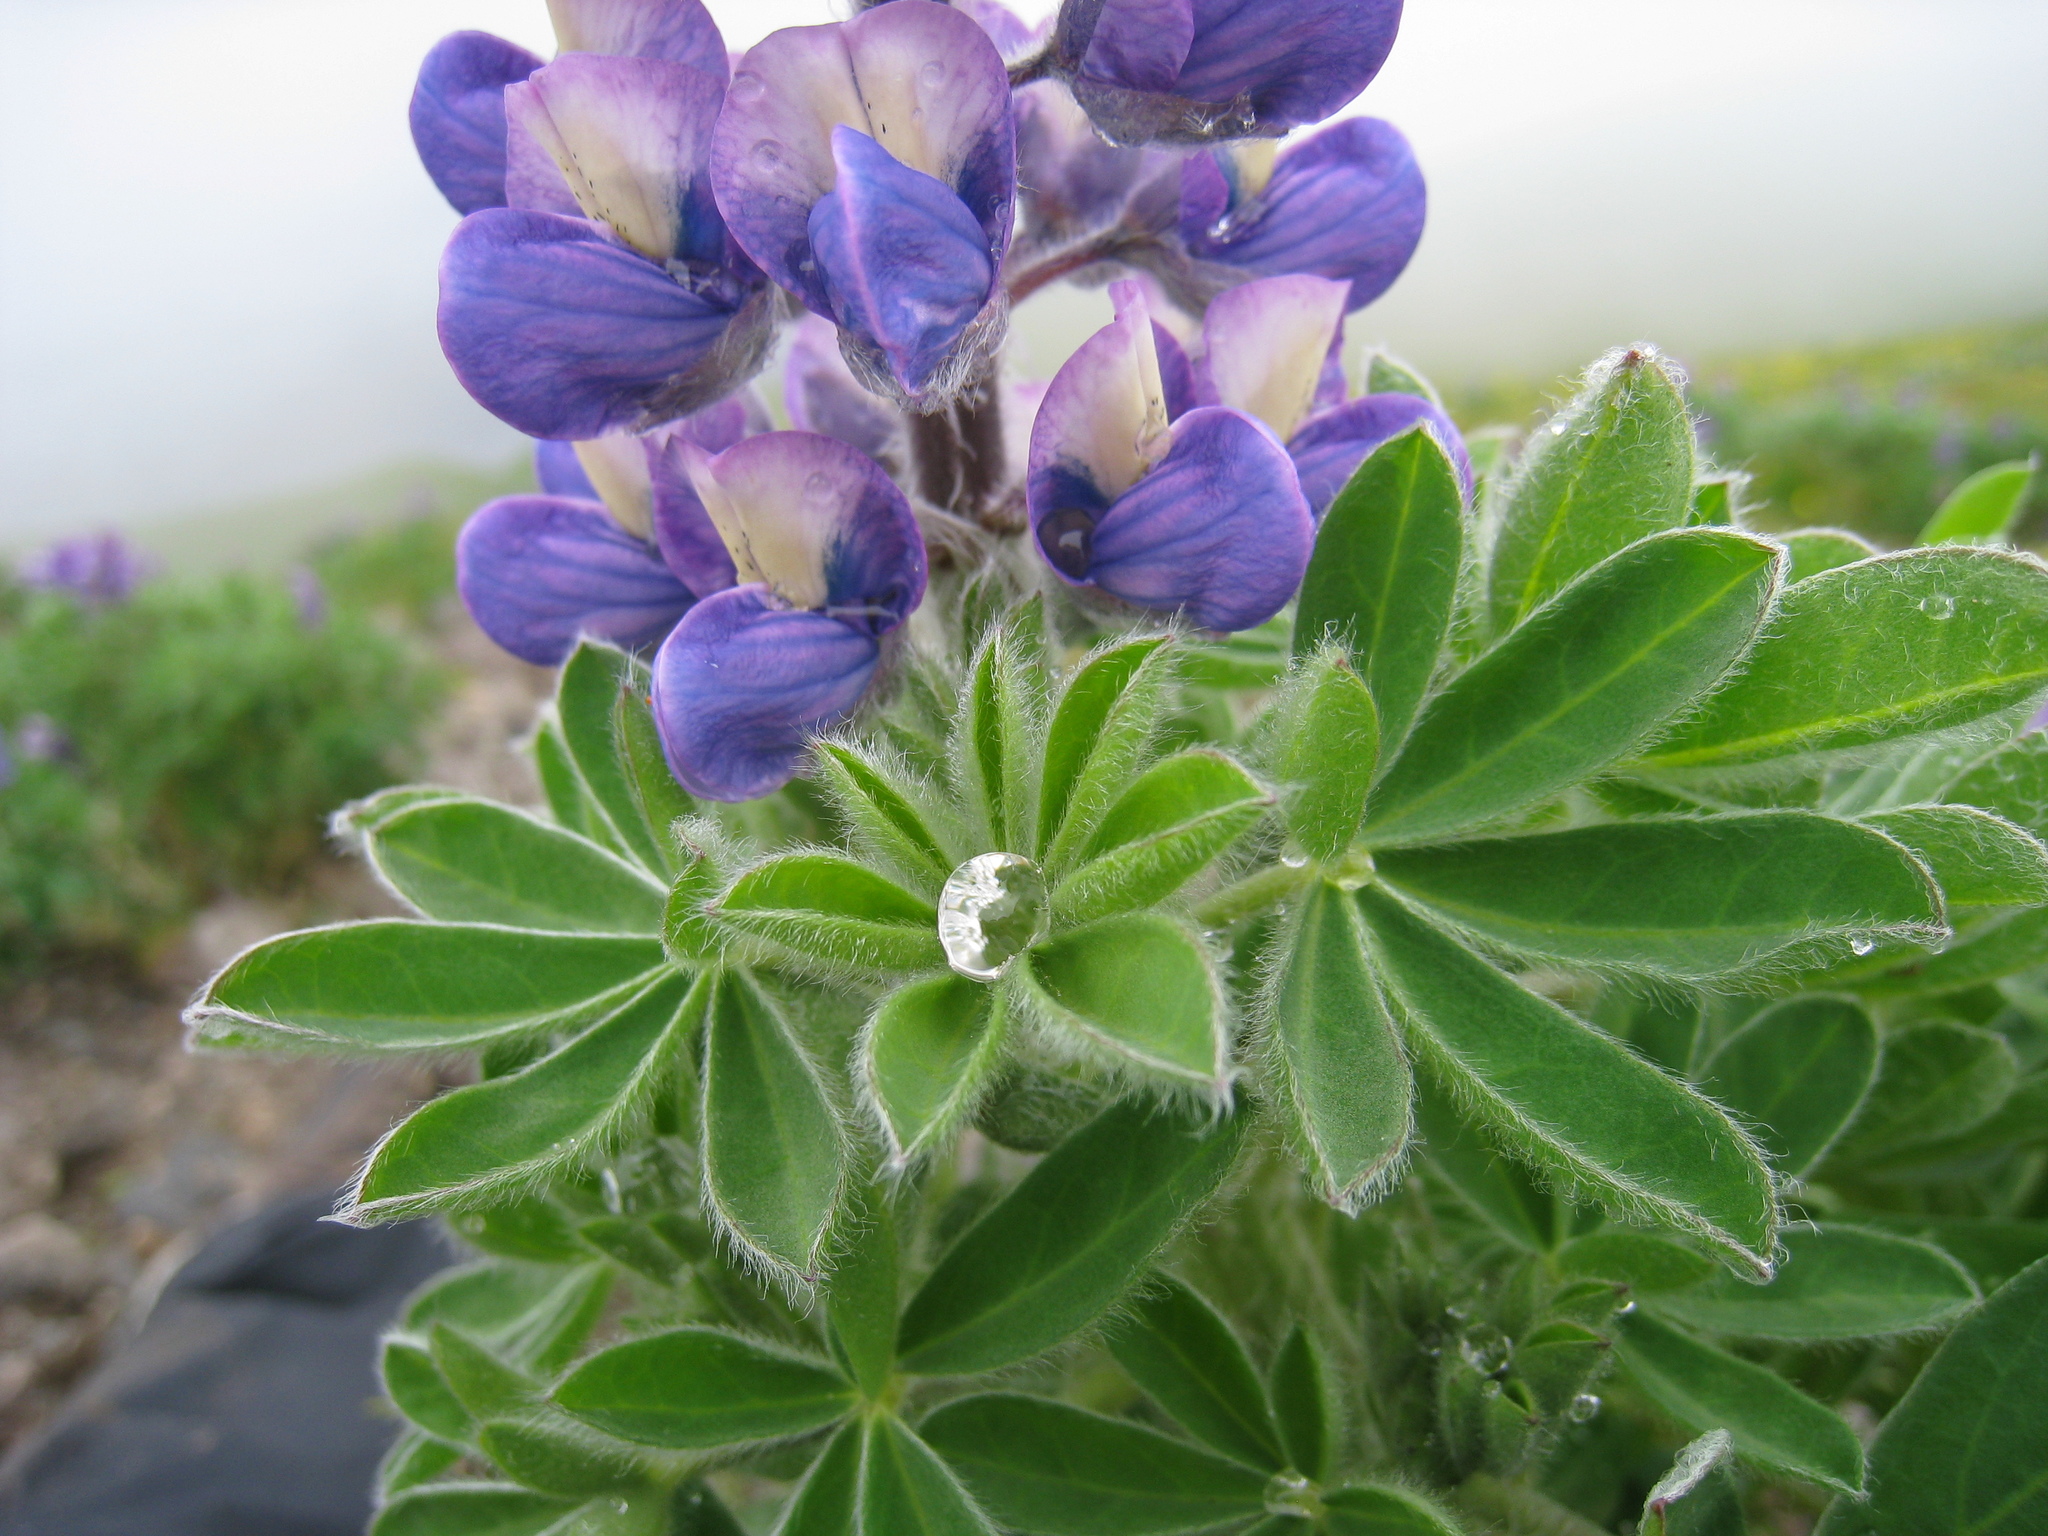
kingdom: Plantae
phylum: Tracheophyta
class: Magnoliopsida
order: Fabales
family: Fabaceae
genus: Lupinus
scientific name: Lupinus nootkatensis
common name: Nootka lupine
